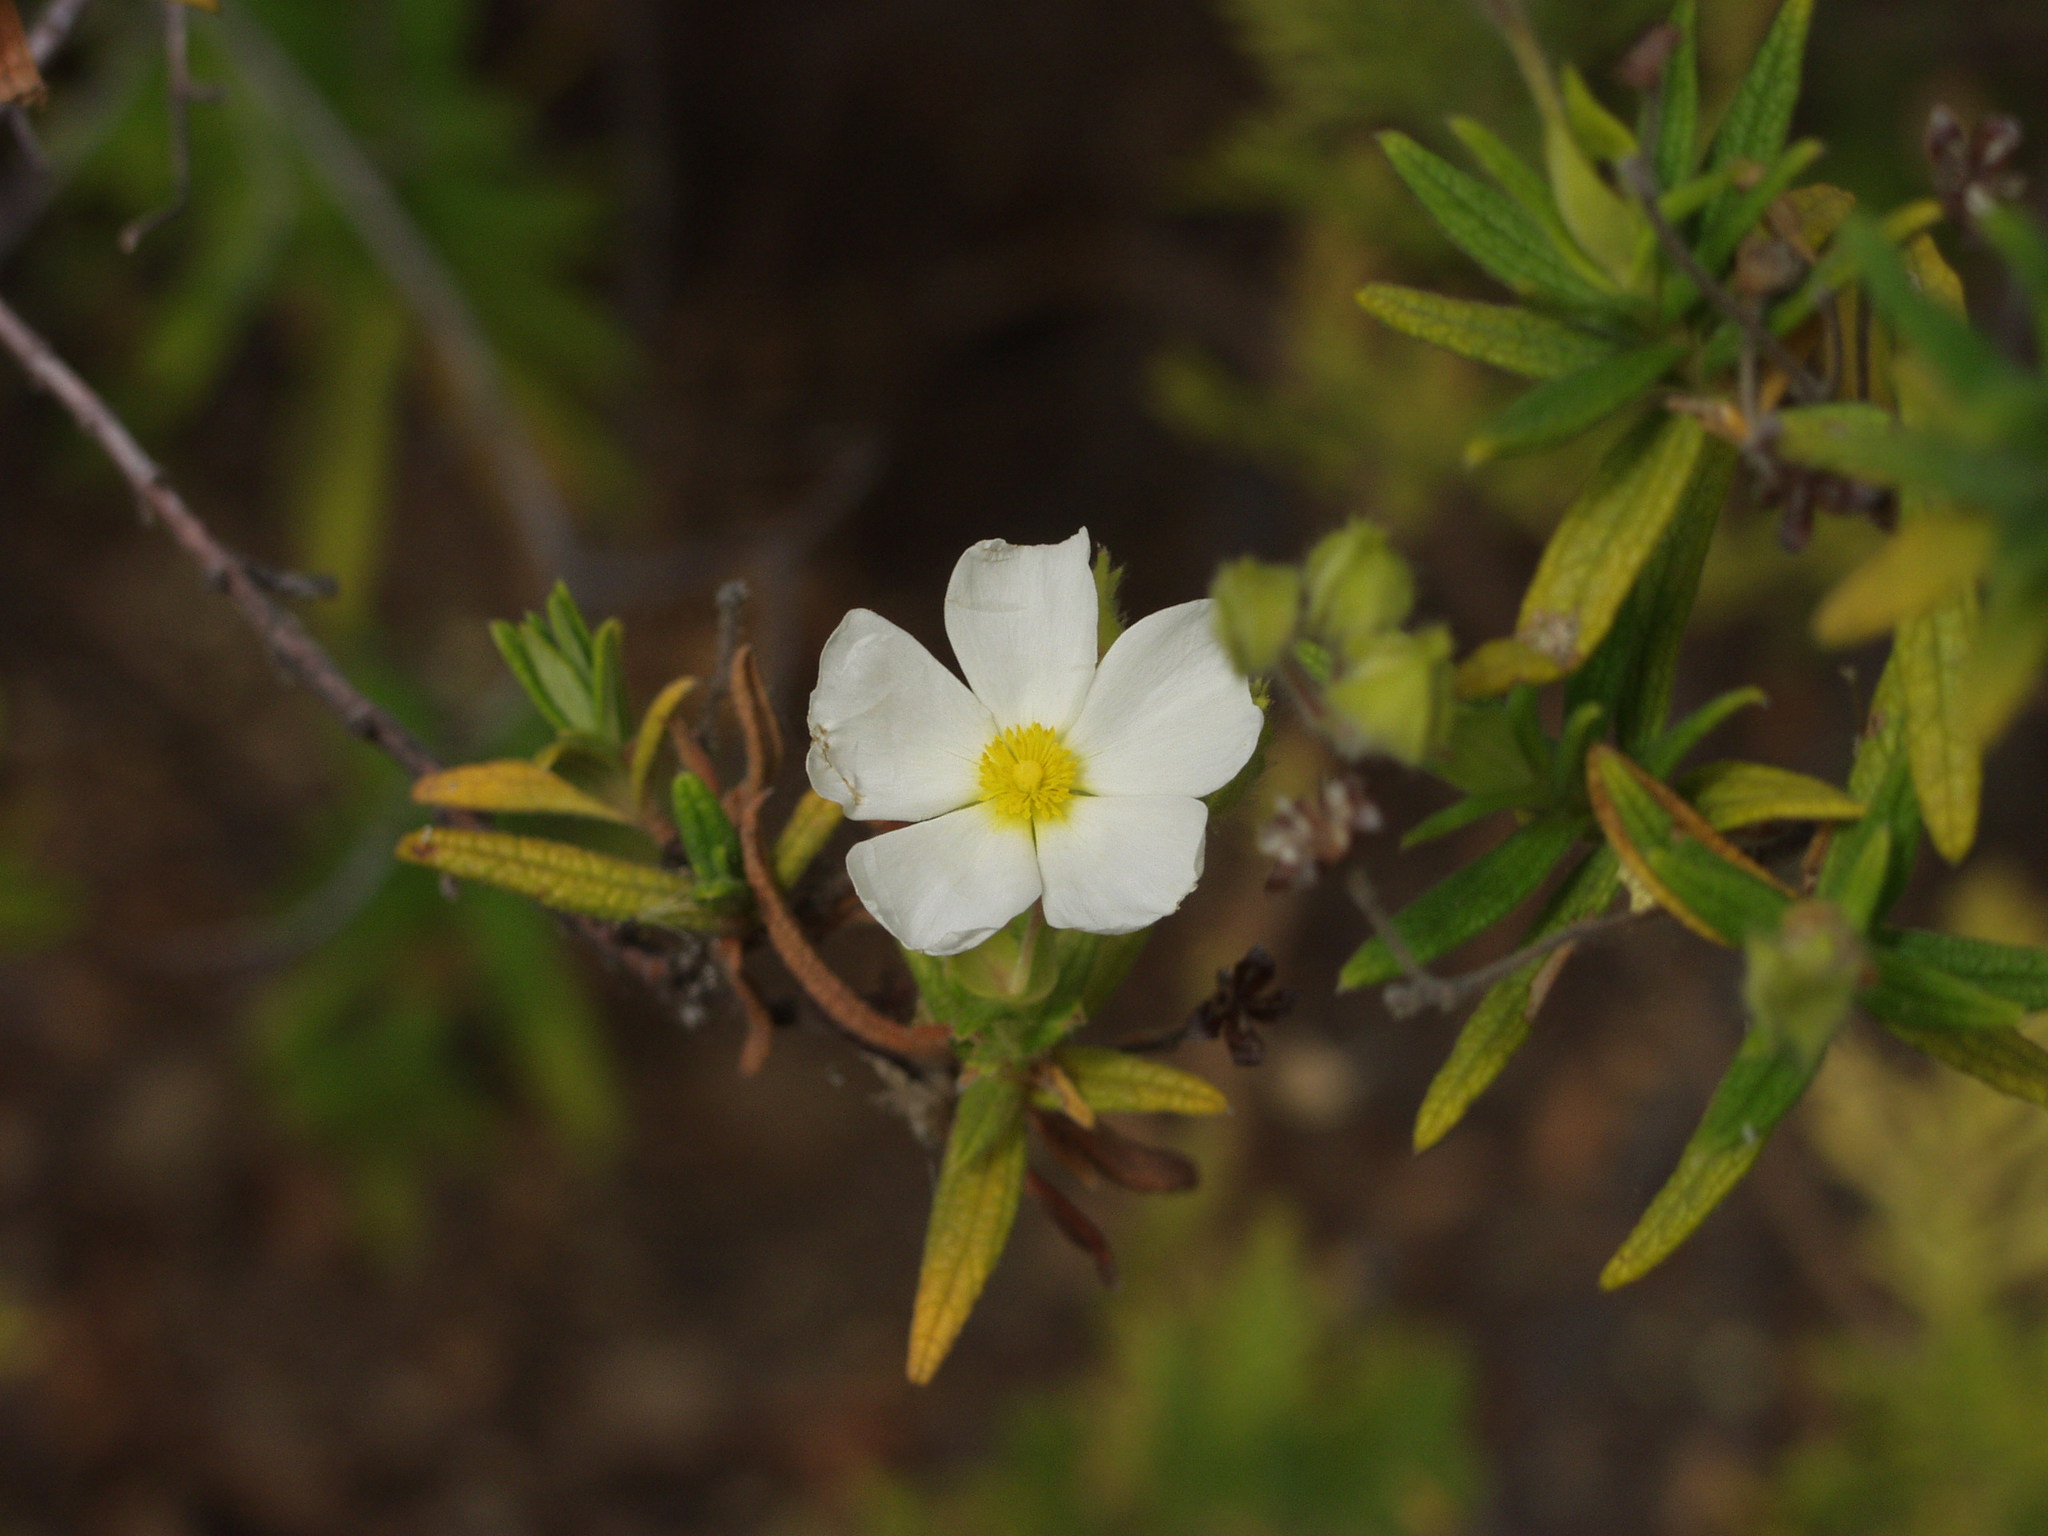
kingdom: Plantae
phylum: Tracheophyta
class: Magnoliopsida
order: Malvales
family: Cistaceae
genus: Cistus
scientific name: Cistus monspeliensis
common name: Montpelier cistus
